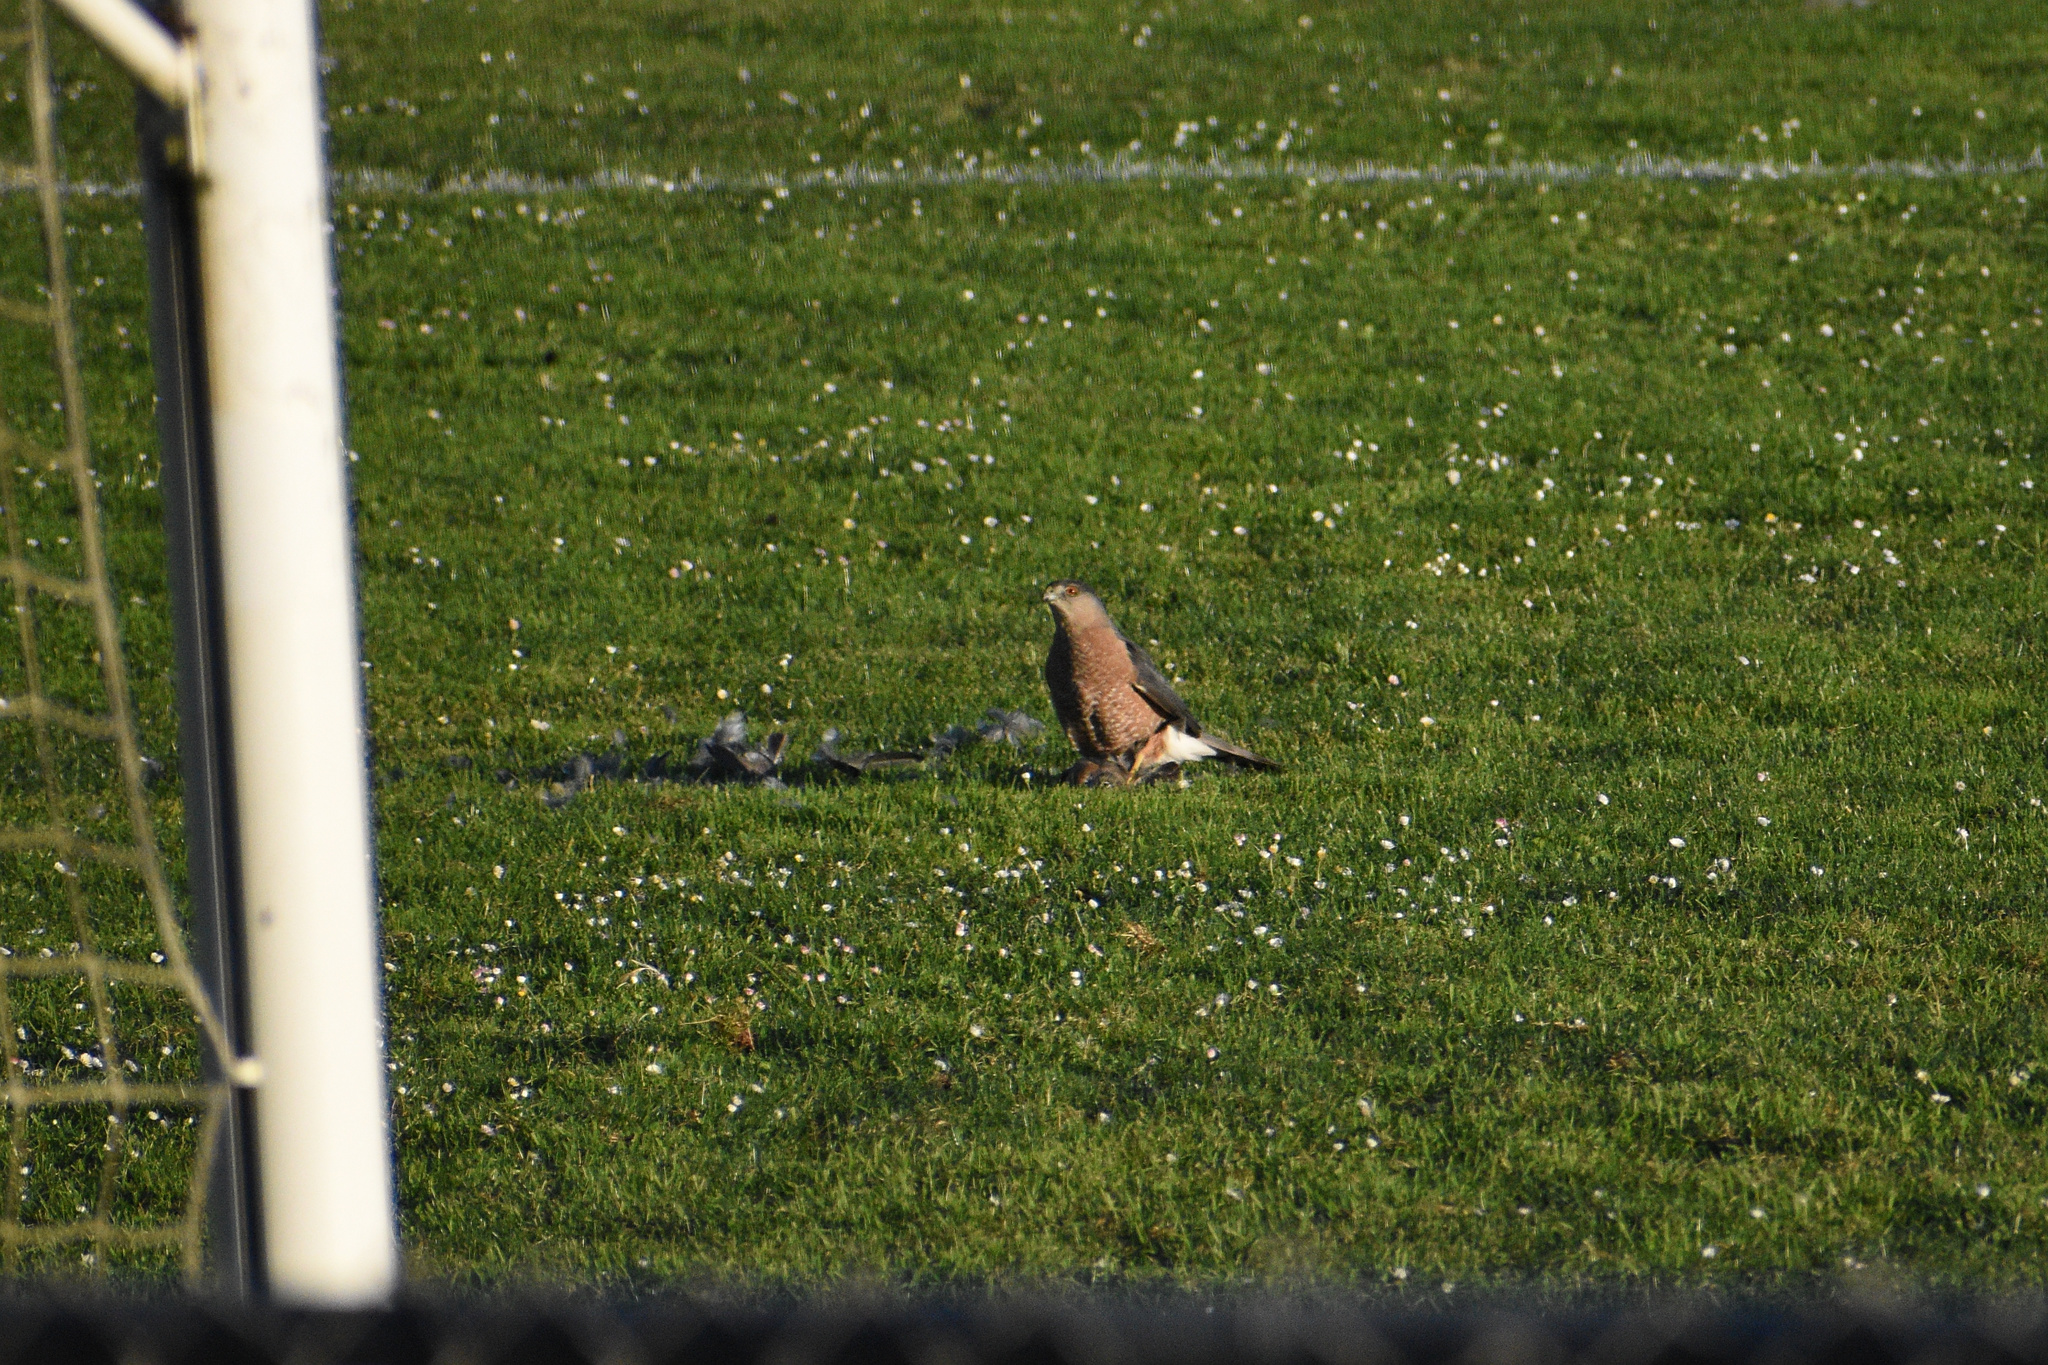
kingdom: Animalia
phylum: Chordata
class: Aves
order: Accipitriformes
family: Accipitridae
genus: Accipiter
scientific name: Accipiter cooperii
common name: Cooper's hawk
